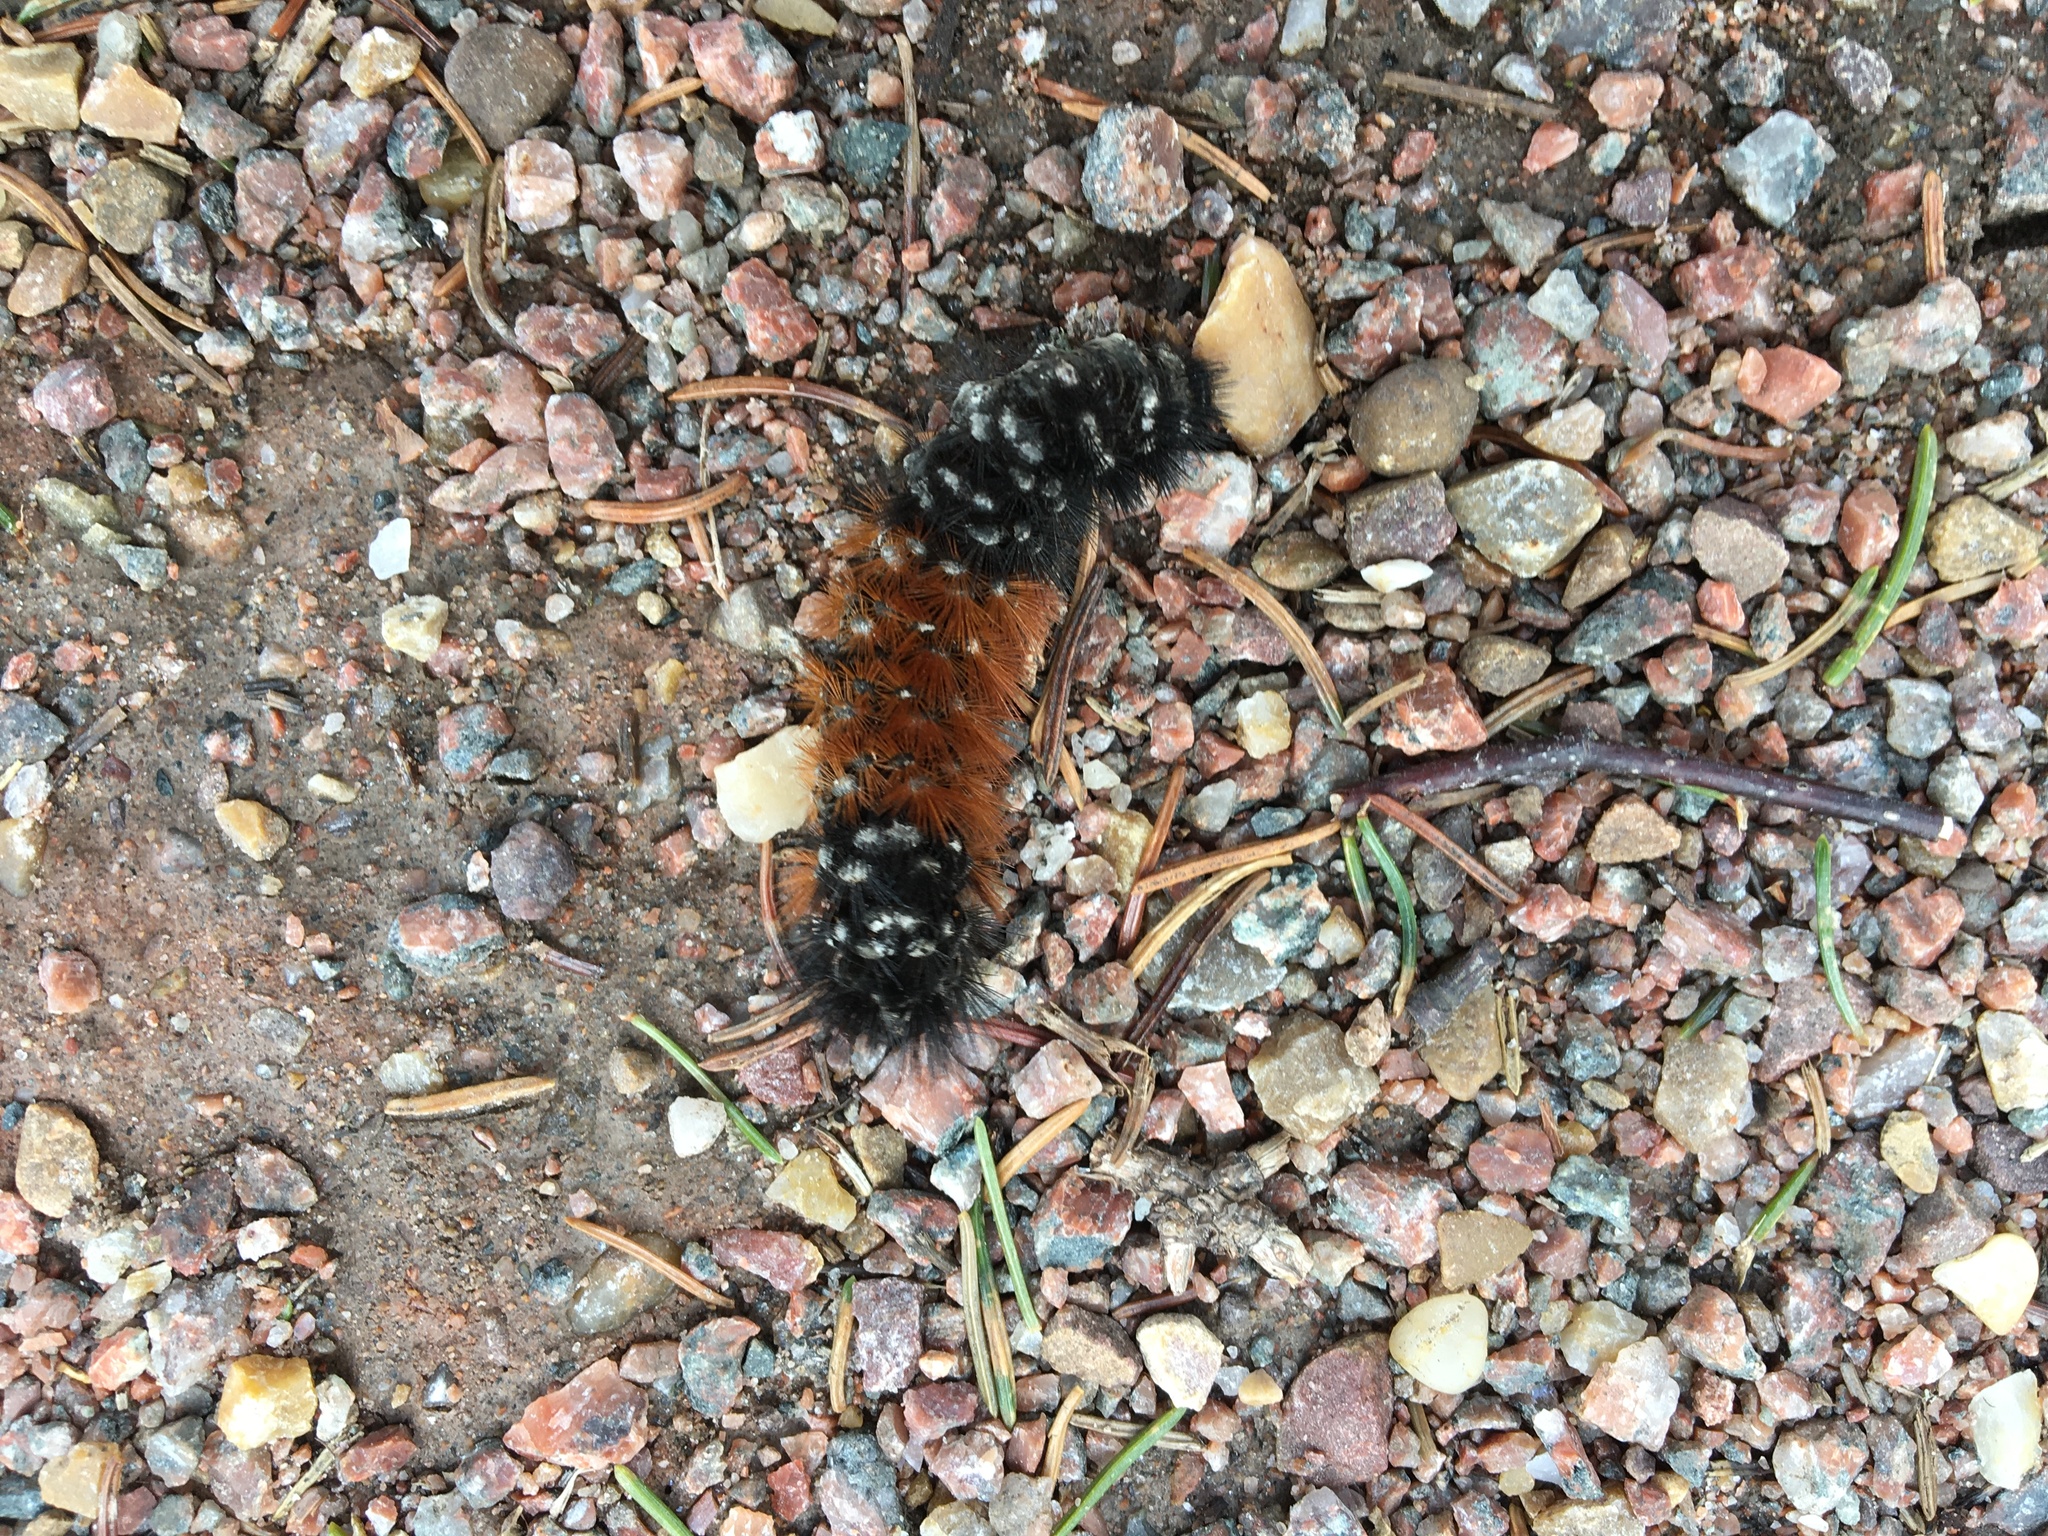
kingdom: Animalia
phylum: Arthropoda
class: Insecta
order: Lepidoptera
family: Erebidae
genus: Pyrrharctia
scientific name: Pyrrharctia isabella
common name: Isabella tiger moth
